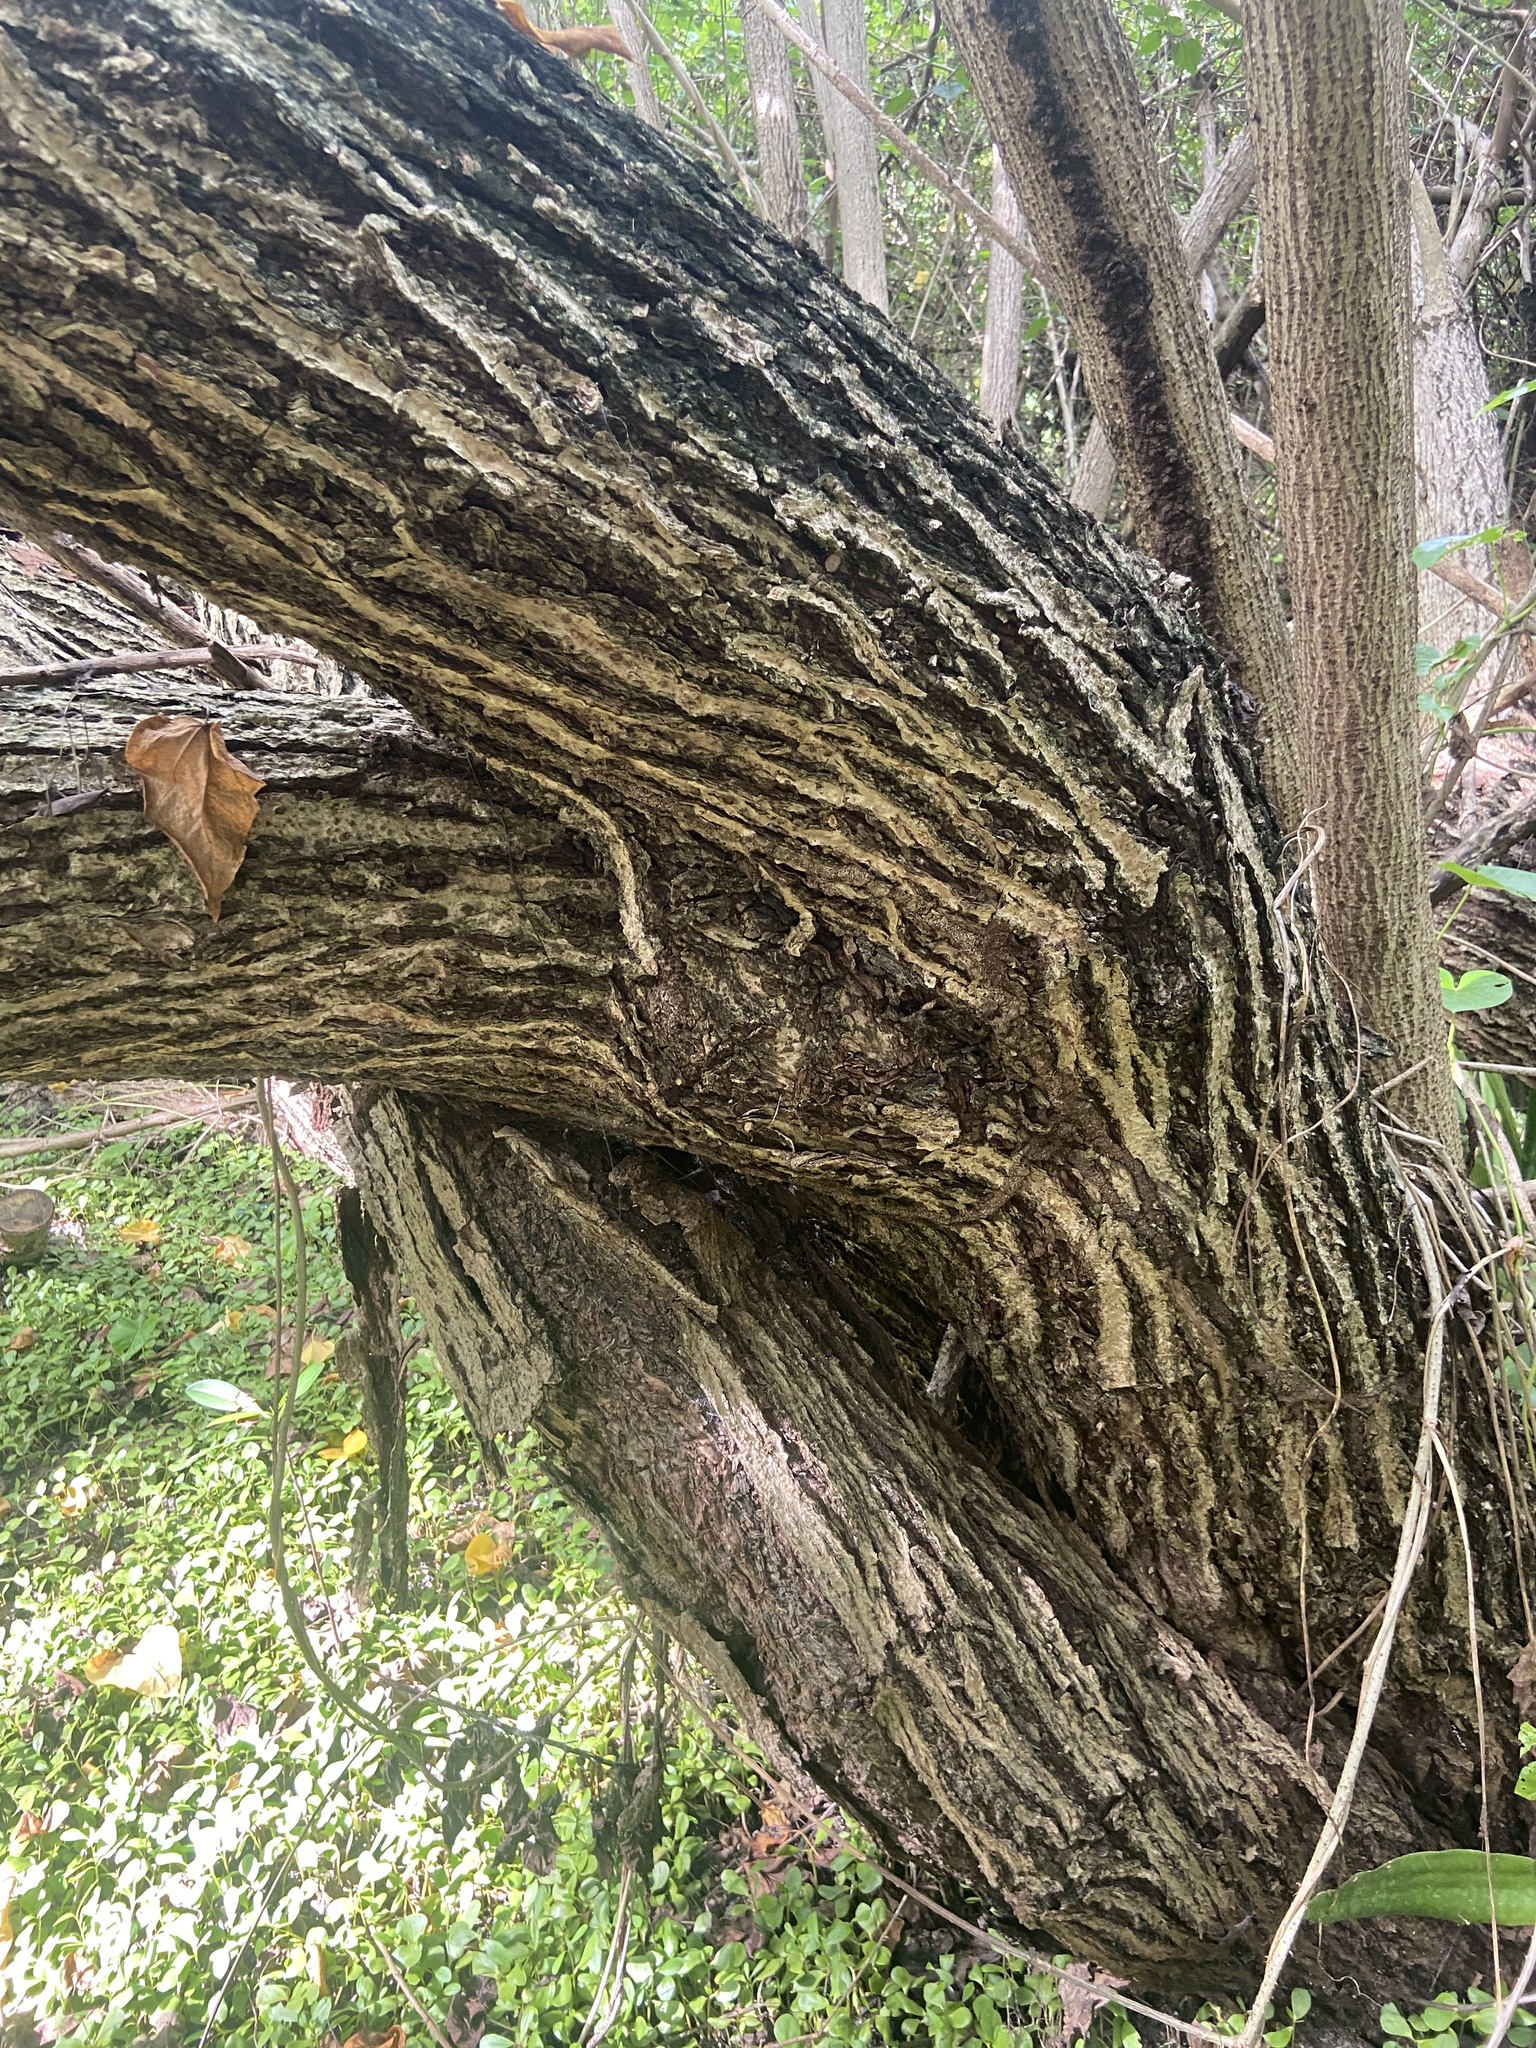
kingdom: Plantae
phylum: Tracheophyta
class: Magnoliopsida
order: Lamiales
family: Acanthaceae
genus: Avicennia
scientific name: Avicennia germinans
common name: Black mangrove
